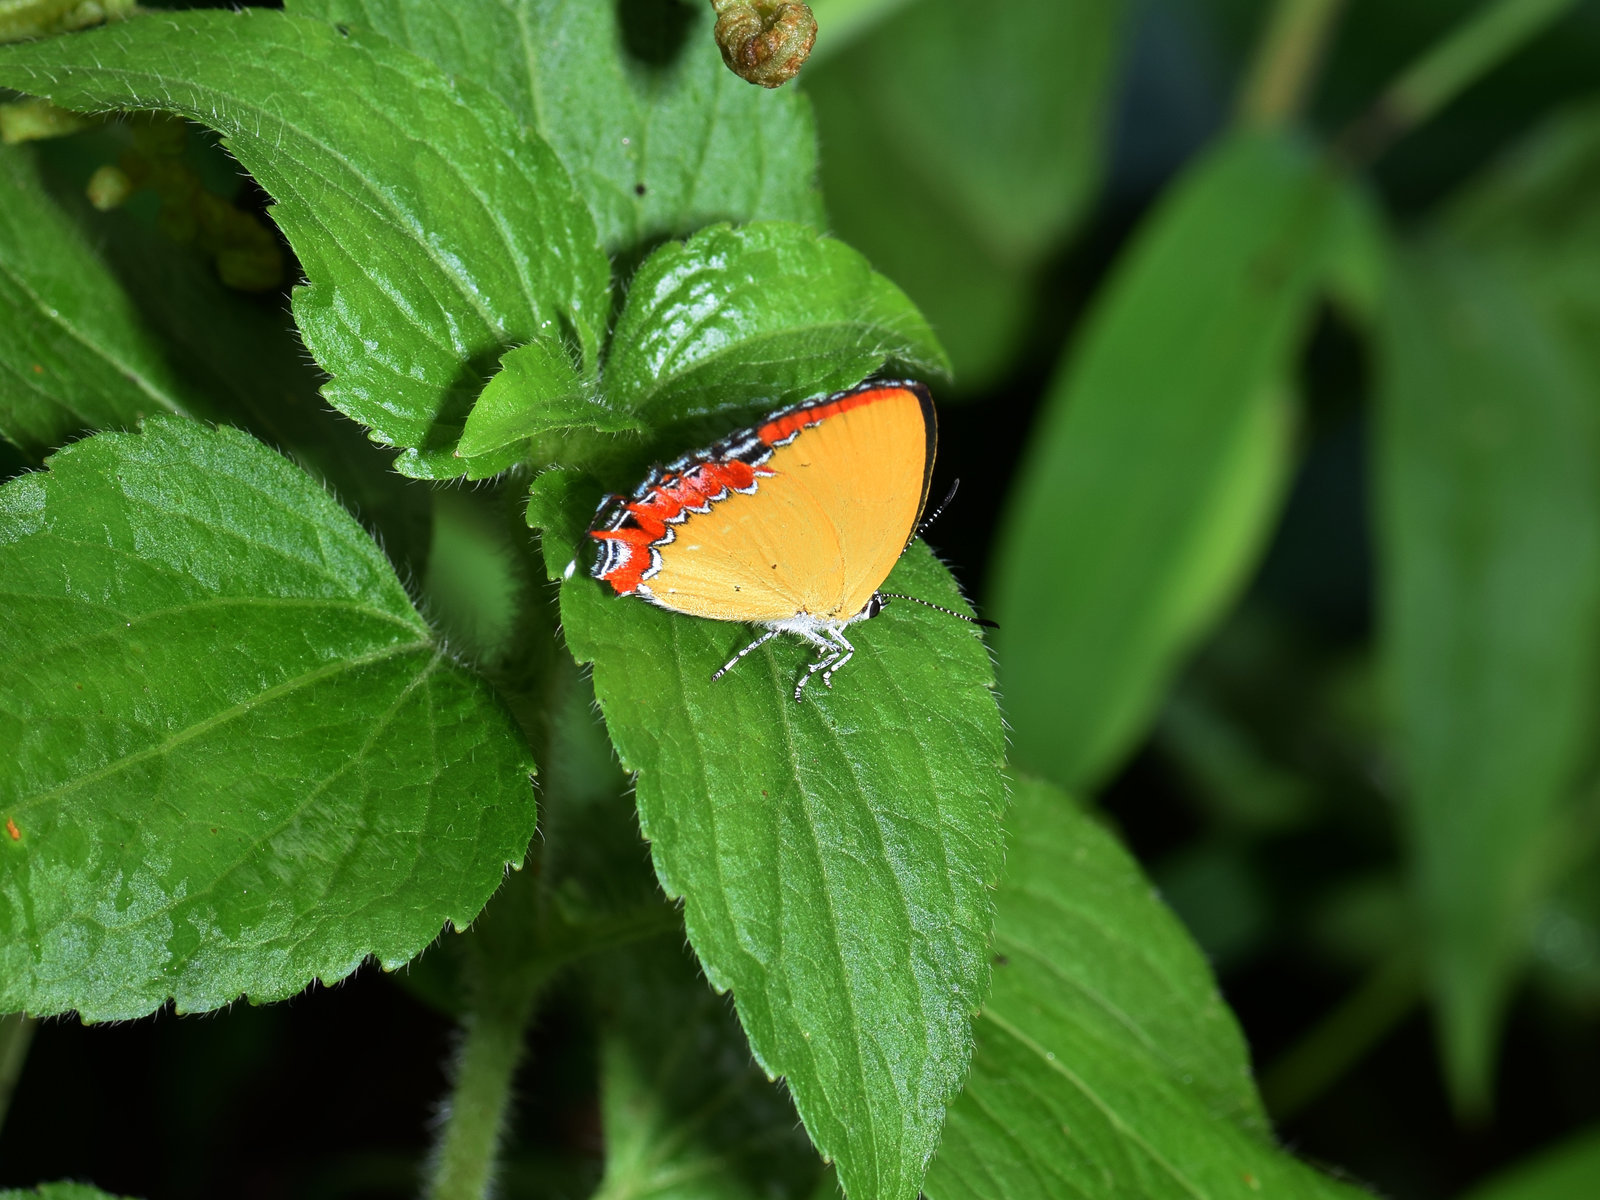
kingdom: Animalia
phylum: Arthropoda
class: Insecta
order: Lepidoptera
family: Lycaenidae
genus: Heliophorus
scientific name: Heliophorus epicles
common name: Purple sapphire
